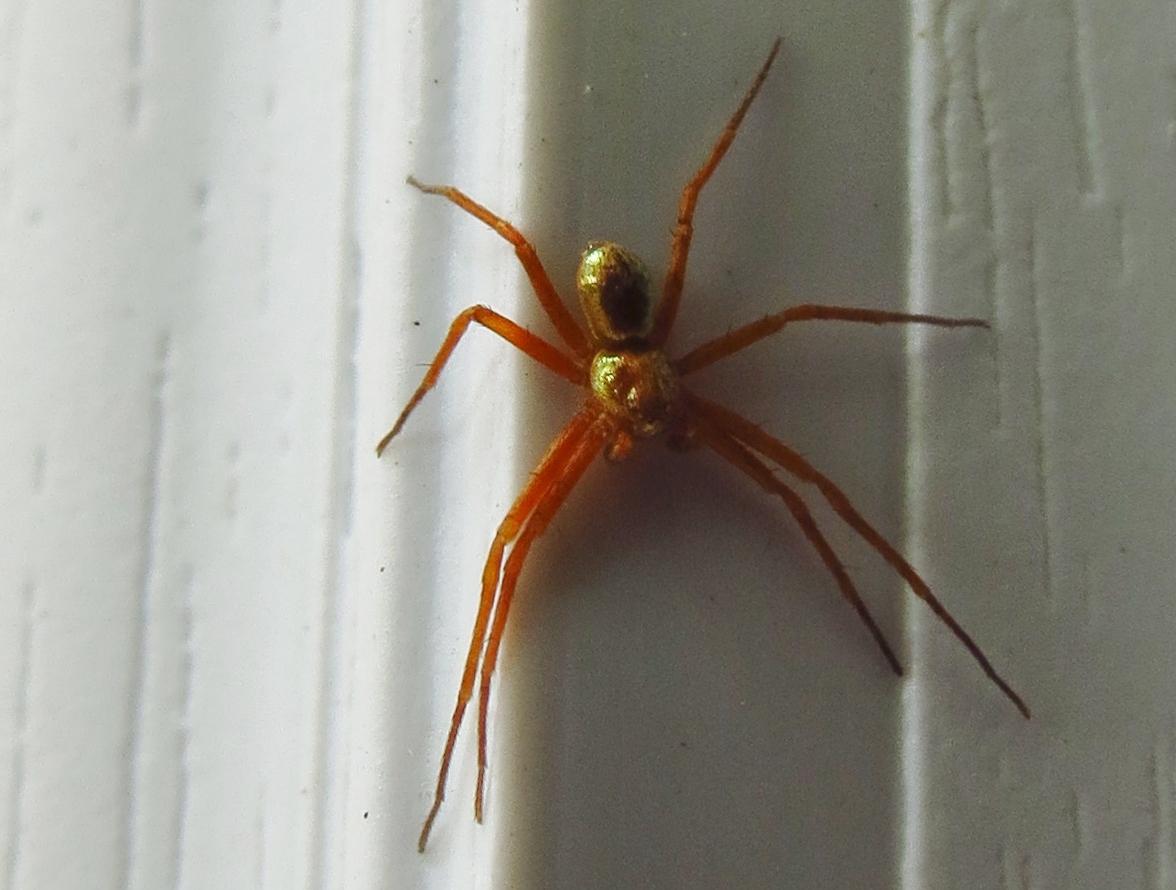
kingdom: Animalia
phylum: Arthropoda
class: Arachnida
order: Araneae
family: Philodromidae
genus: Philodromus
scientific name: Philodromus marxi
